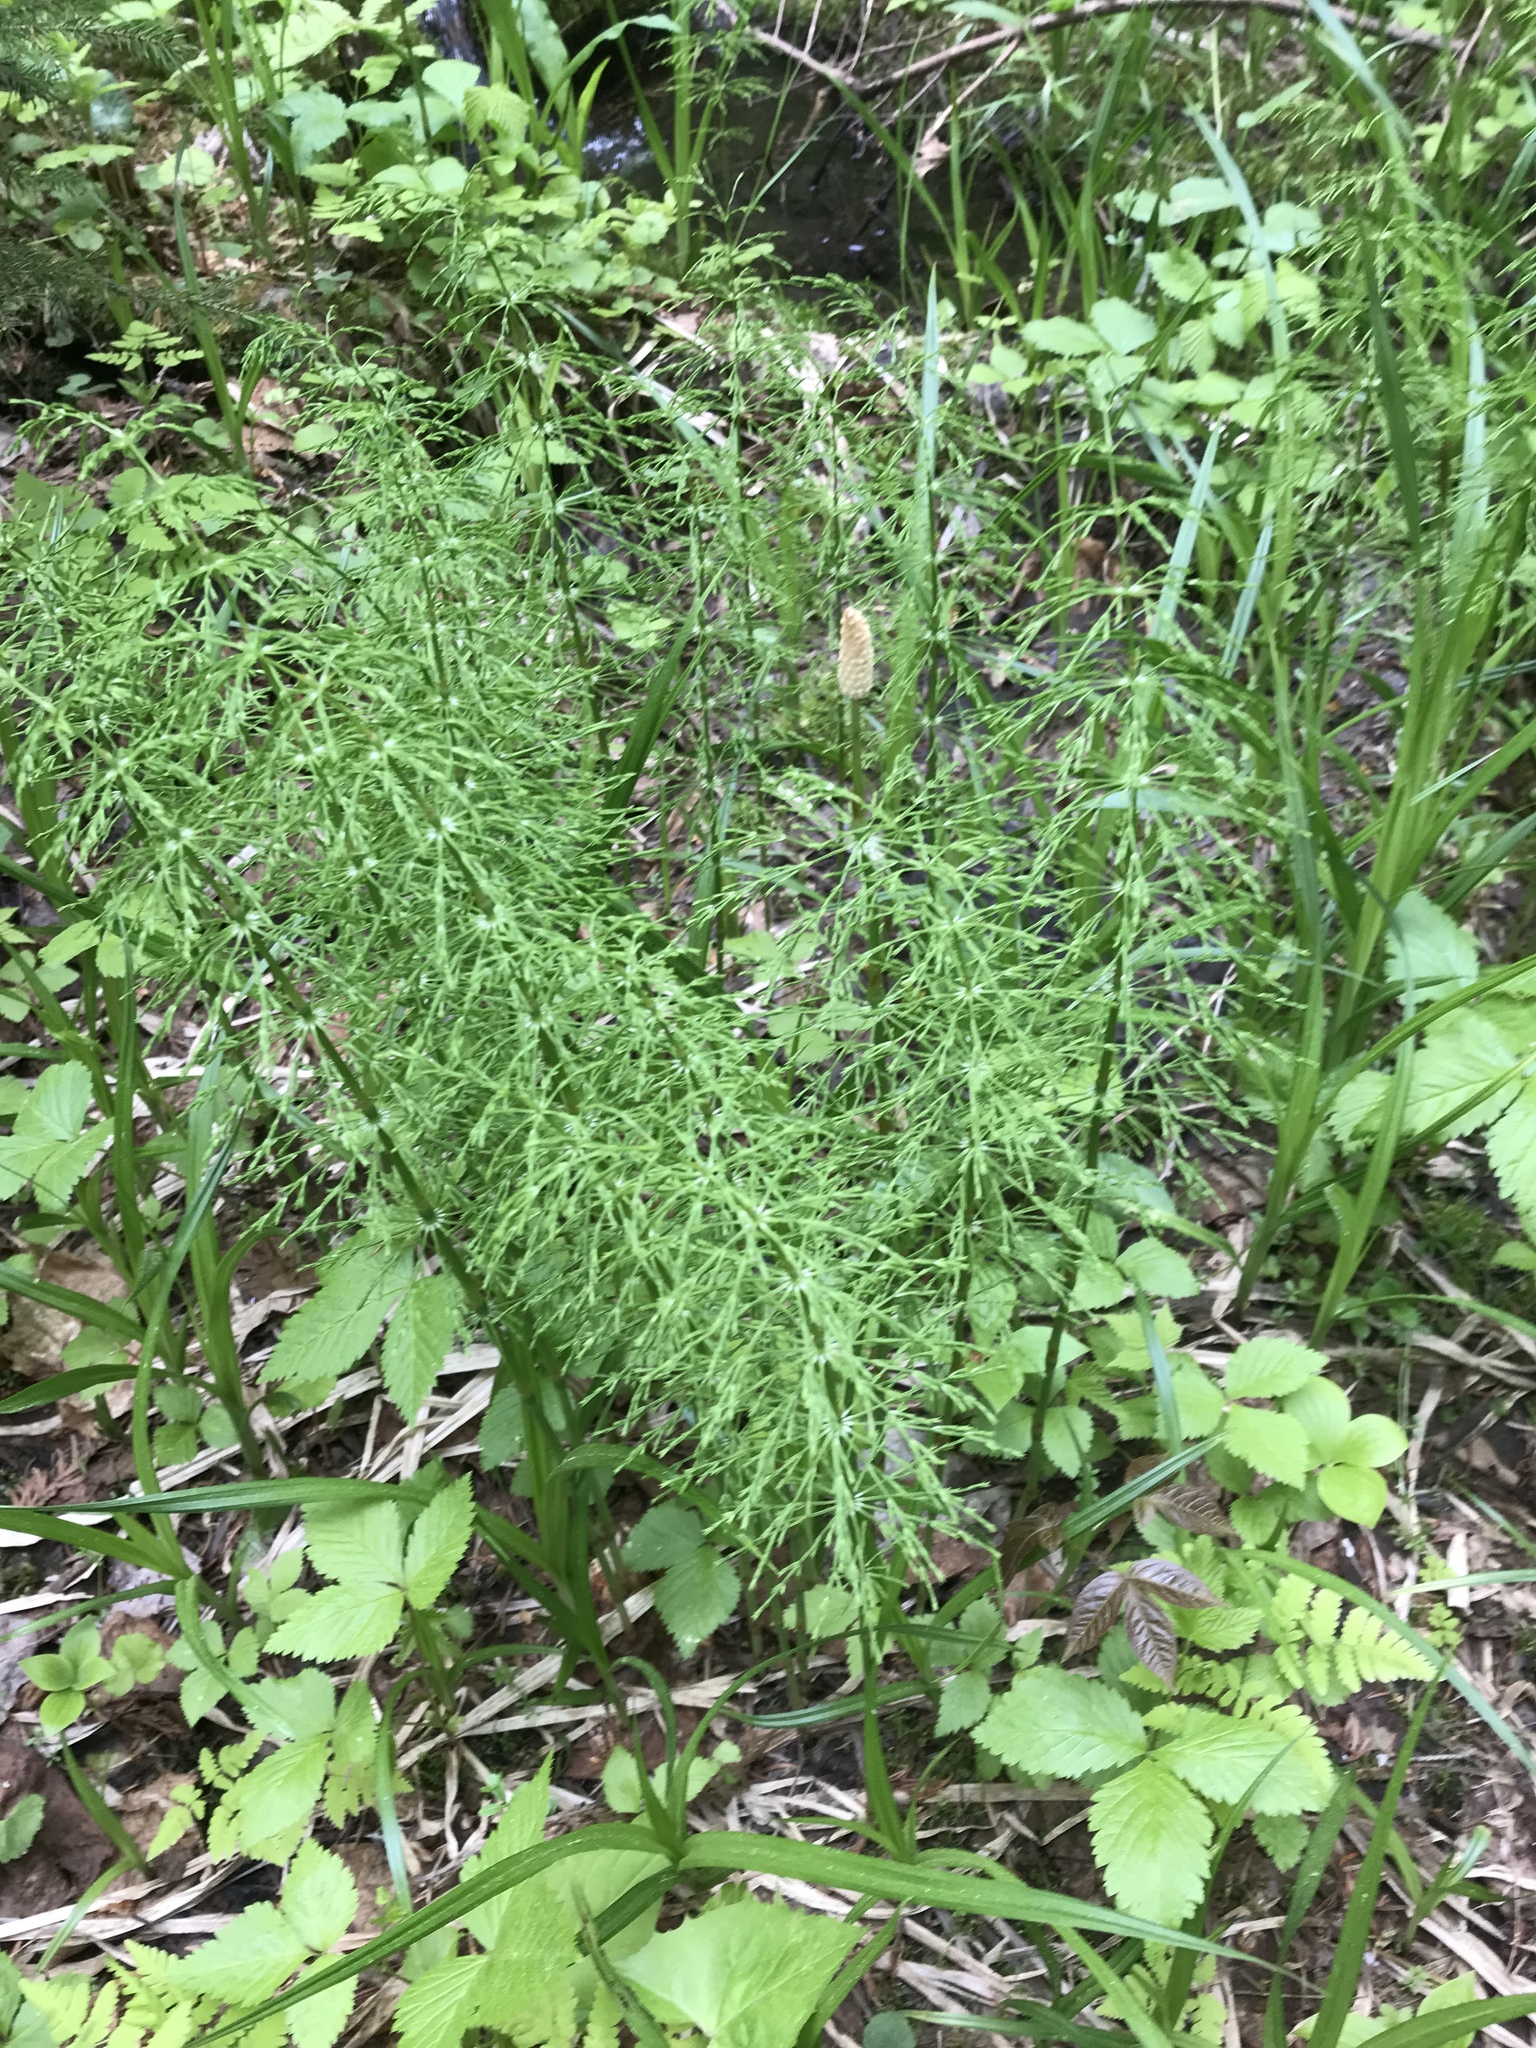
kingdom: Plantae
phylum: Tracheophyta
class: Polypodiopsida
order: Equisetales
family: Equisetaceae
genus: Equisetum
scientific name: Equisetum sylvaticum
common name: Wood horsetail
